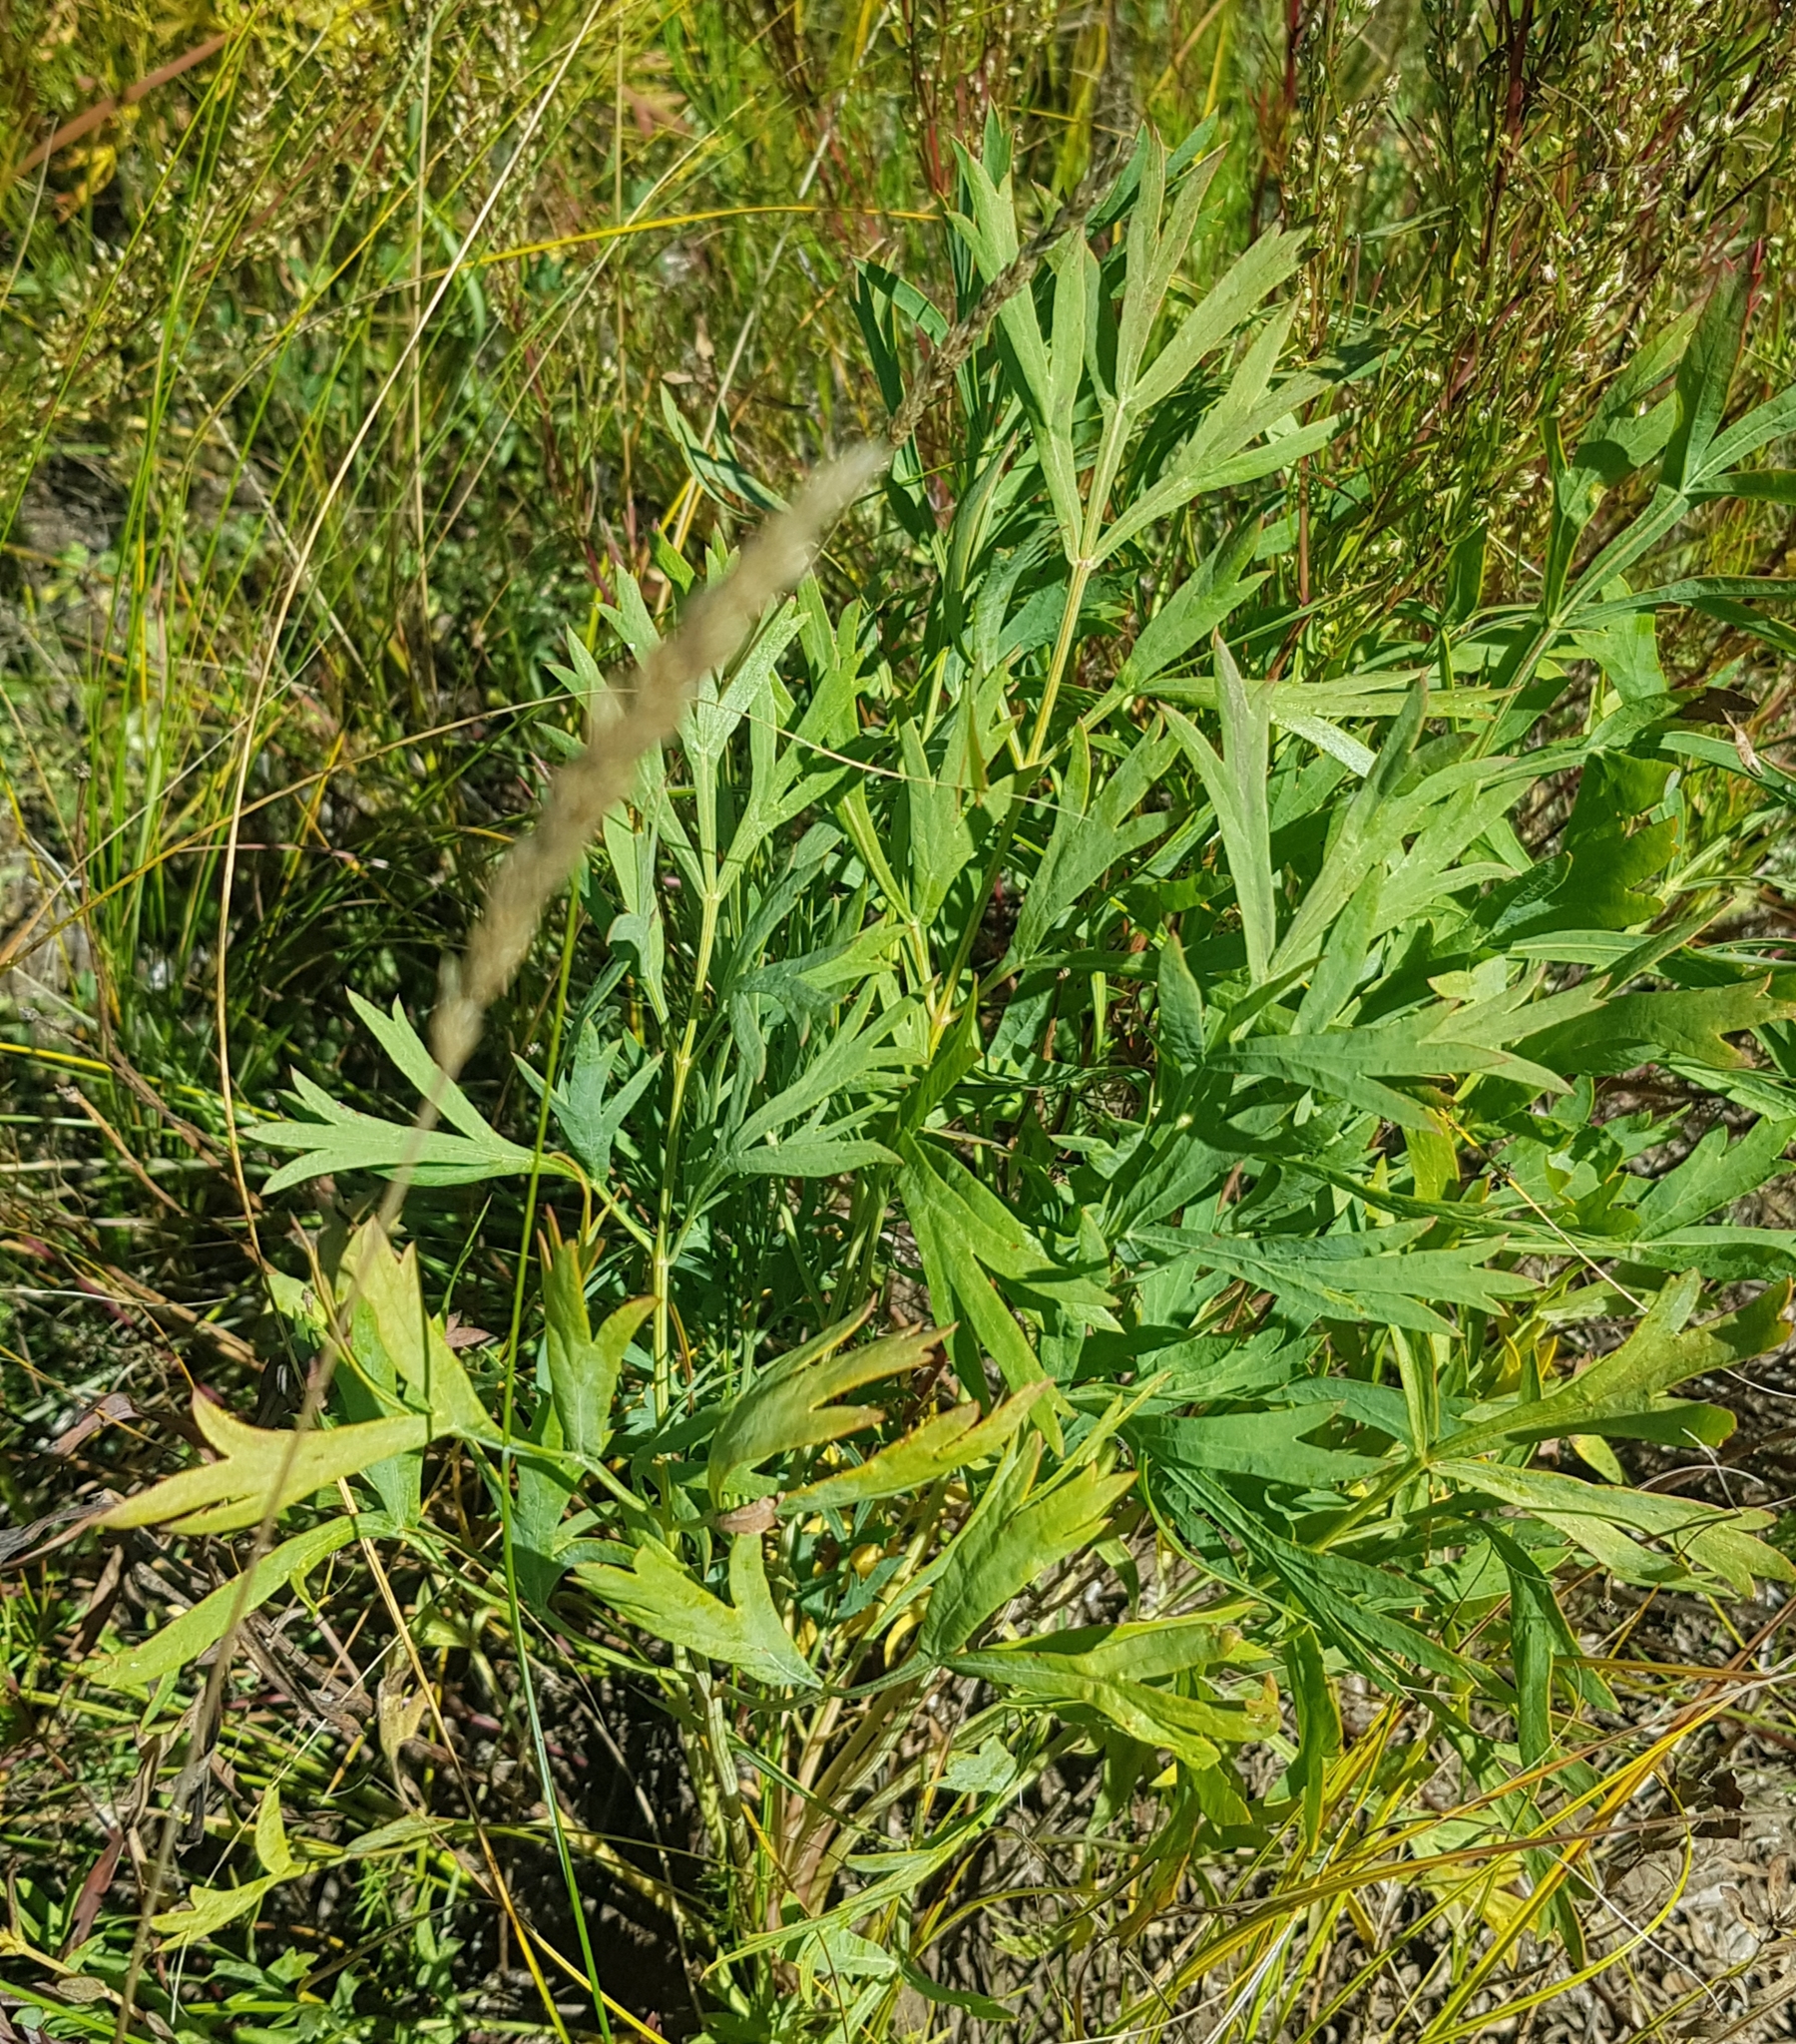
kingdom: Plantae
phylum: Tracheophyta
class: Magnoliopsida
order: Apiales
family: Apiaceae
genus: Saposhnikovia
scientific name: Saposhnikovia divaricata
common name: Siler
